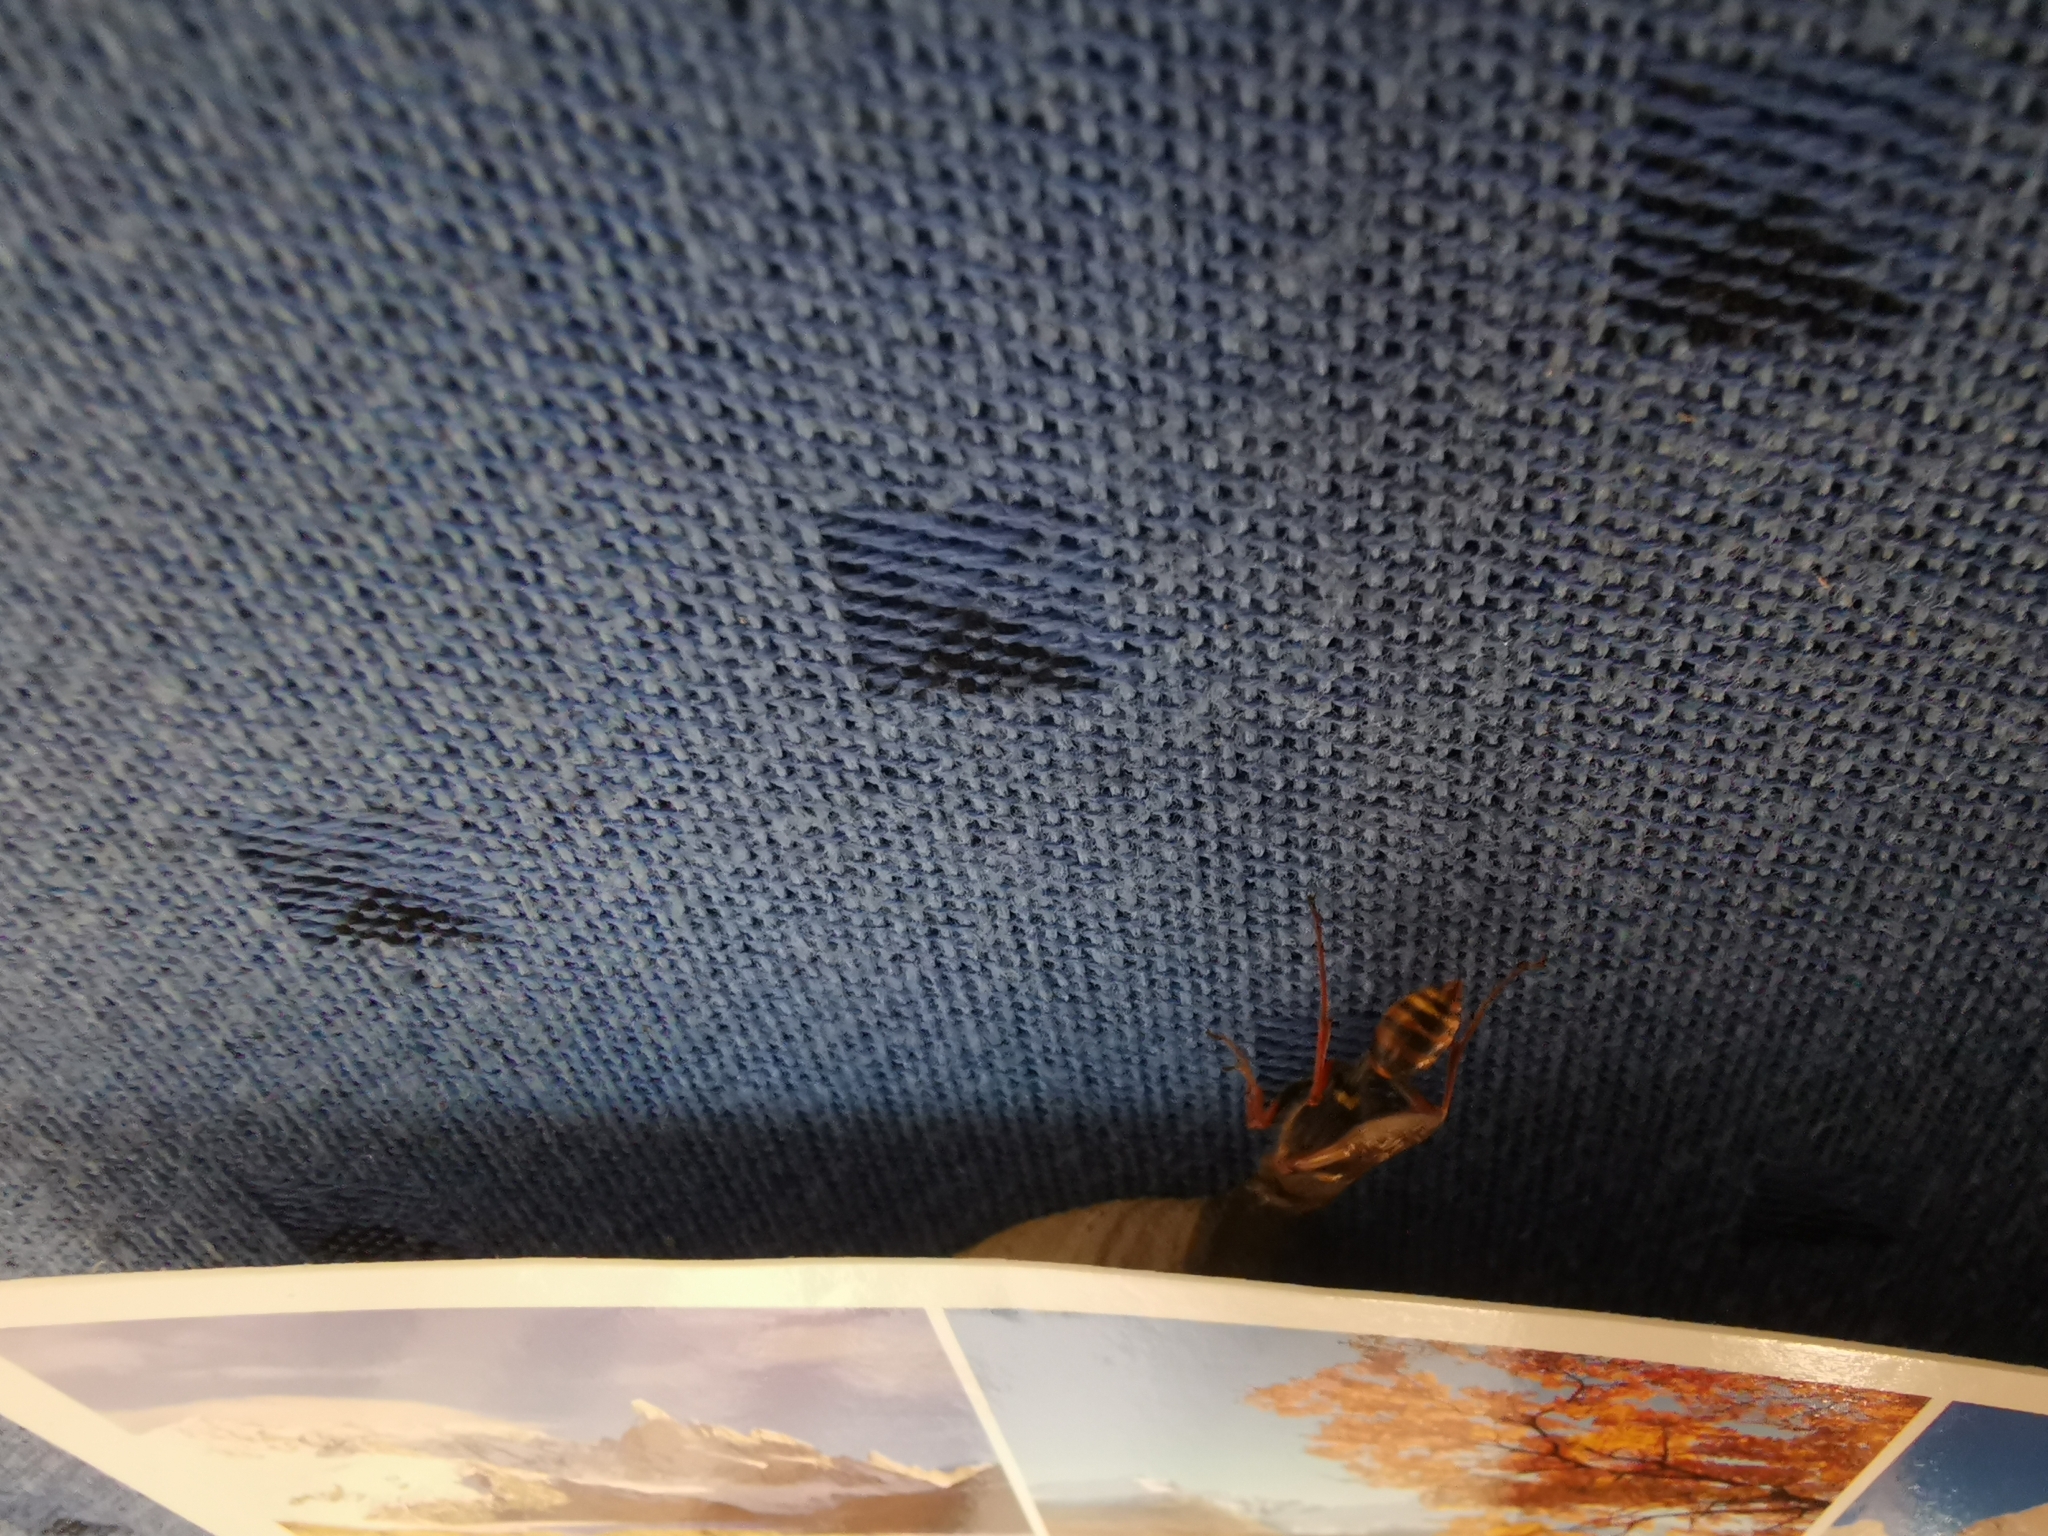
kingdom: Animalia
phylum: Arthropoda
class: Insecta
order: Hymenoptera
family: Sphecidae
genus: Sceliphron
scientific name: Sceliphron curvatum
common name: Pèlopèe
